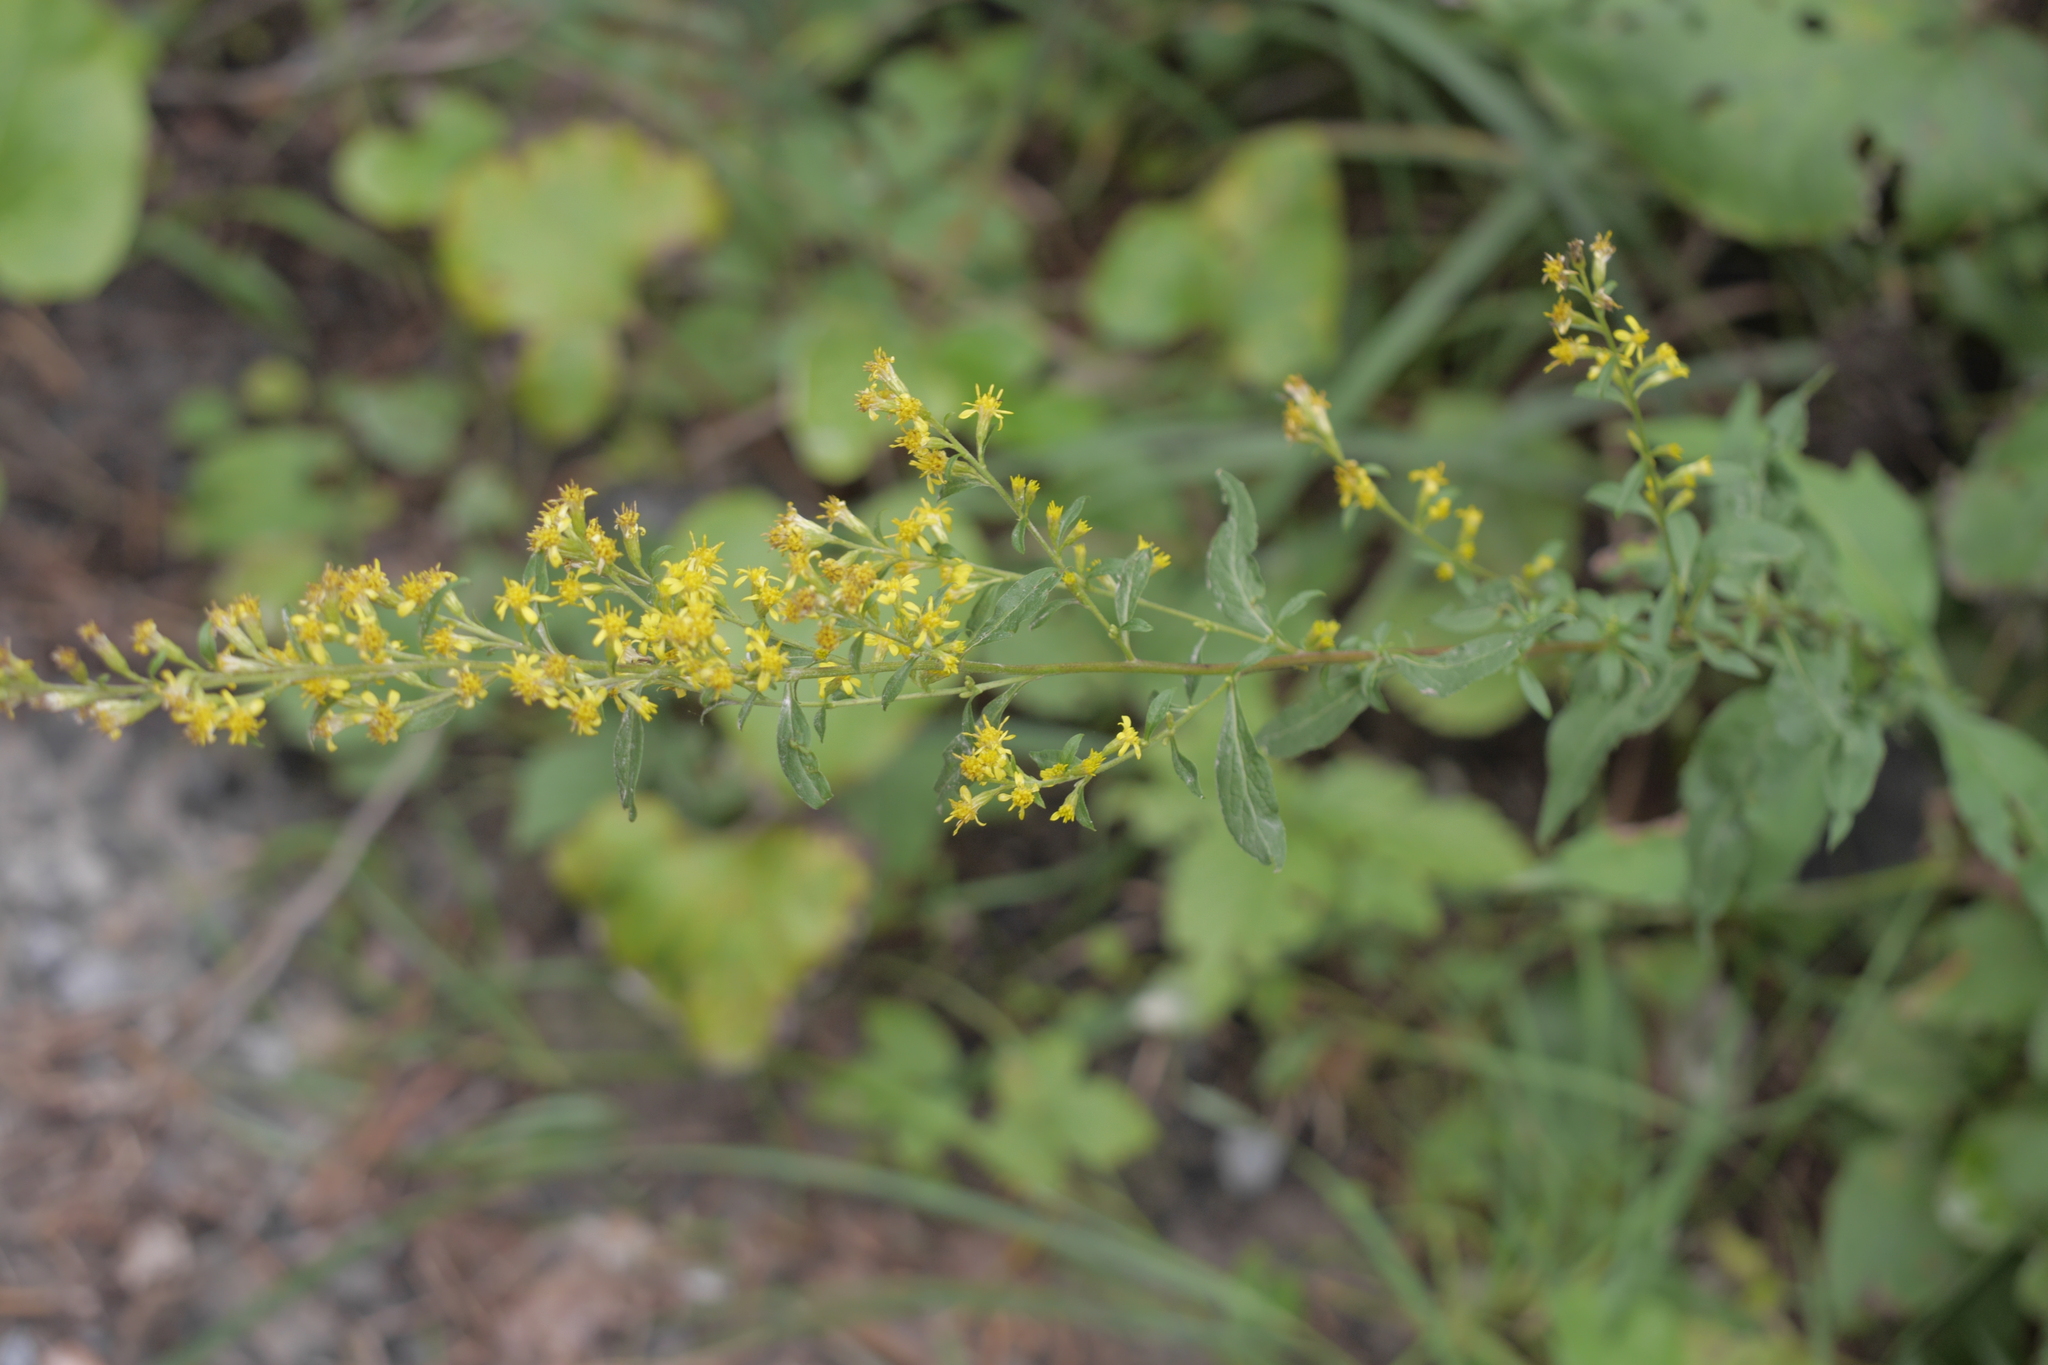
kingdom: Plantae
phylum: Tracheophyta
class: Magnoliopsida
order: Asterales
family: Asteraceae
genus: Solidago
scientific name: Solidago virgaurea
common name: Goldenrod
